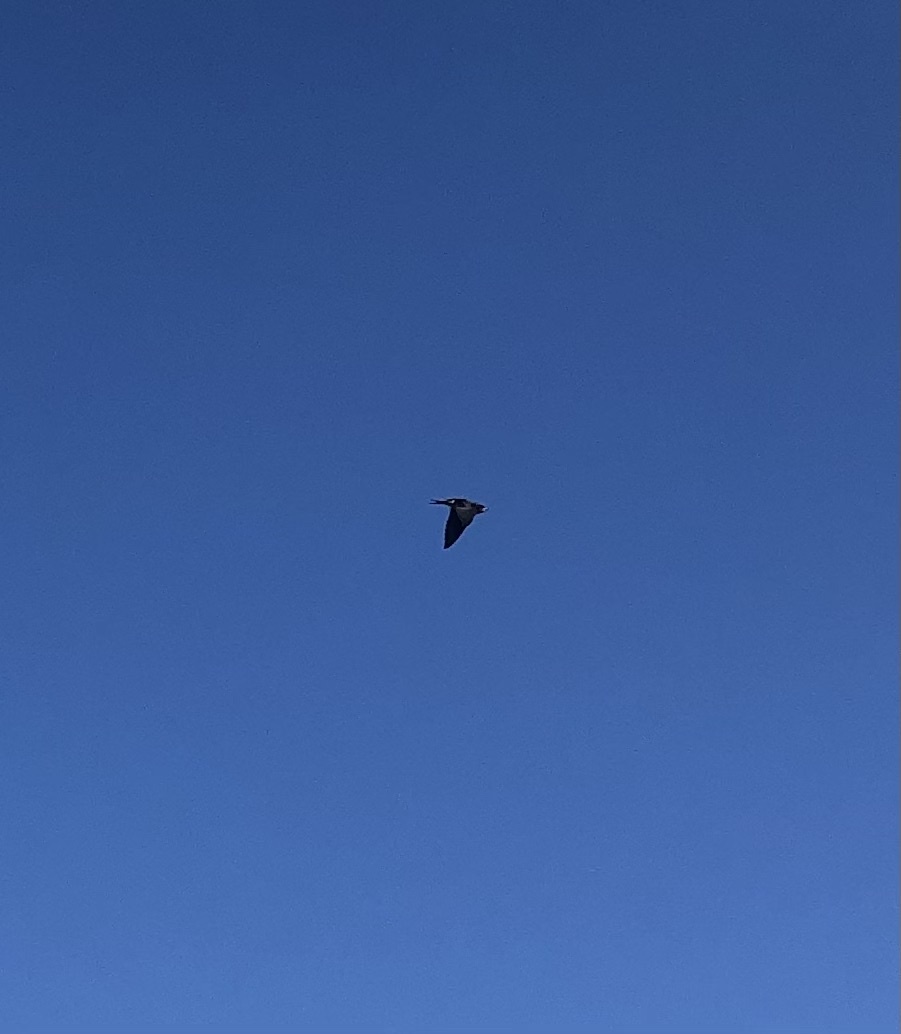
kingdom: Animalia
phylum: Chordata
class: Aves
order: Passeriformes
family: Hirundinidae
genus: Hirundo
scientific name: Hirundo rustica
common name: Barn swallow
